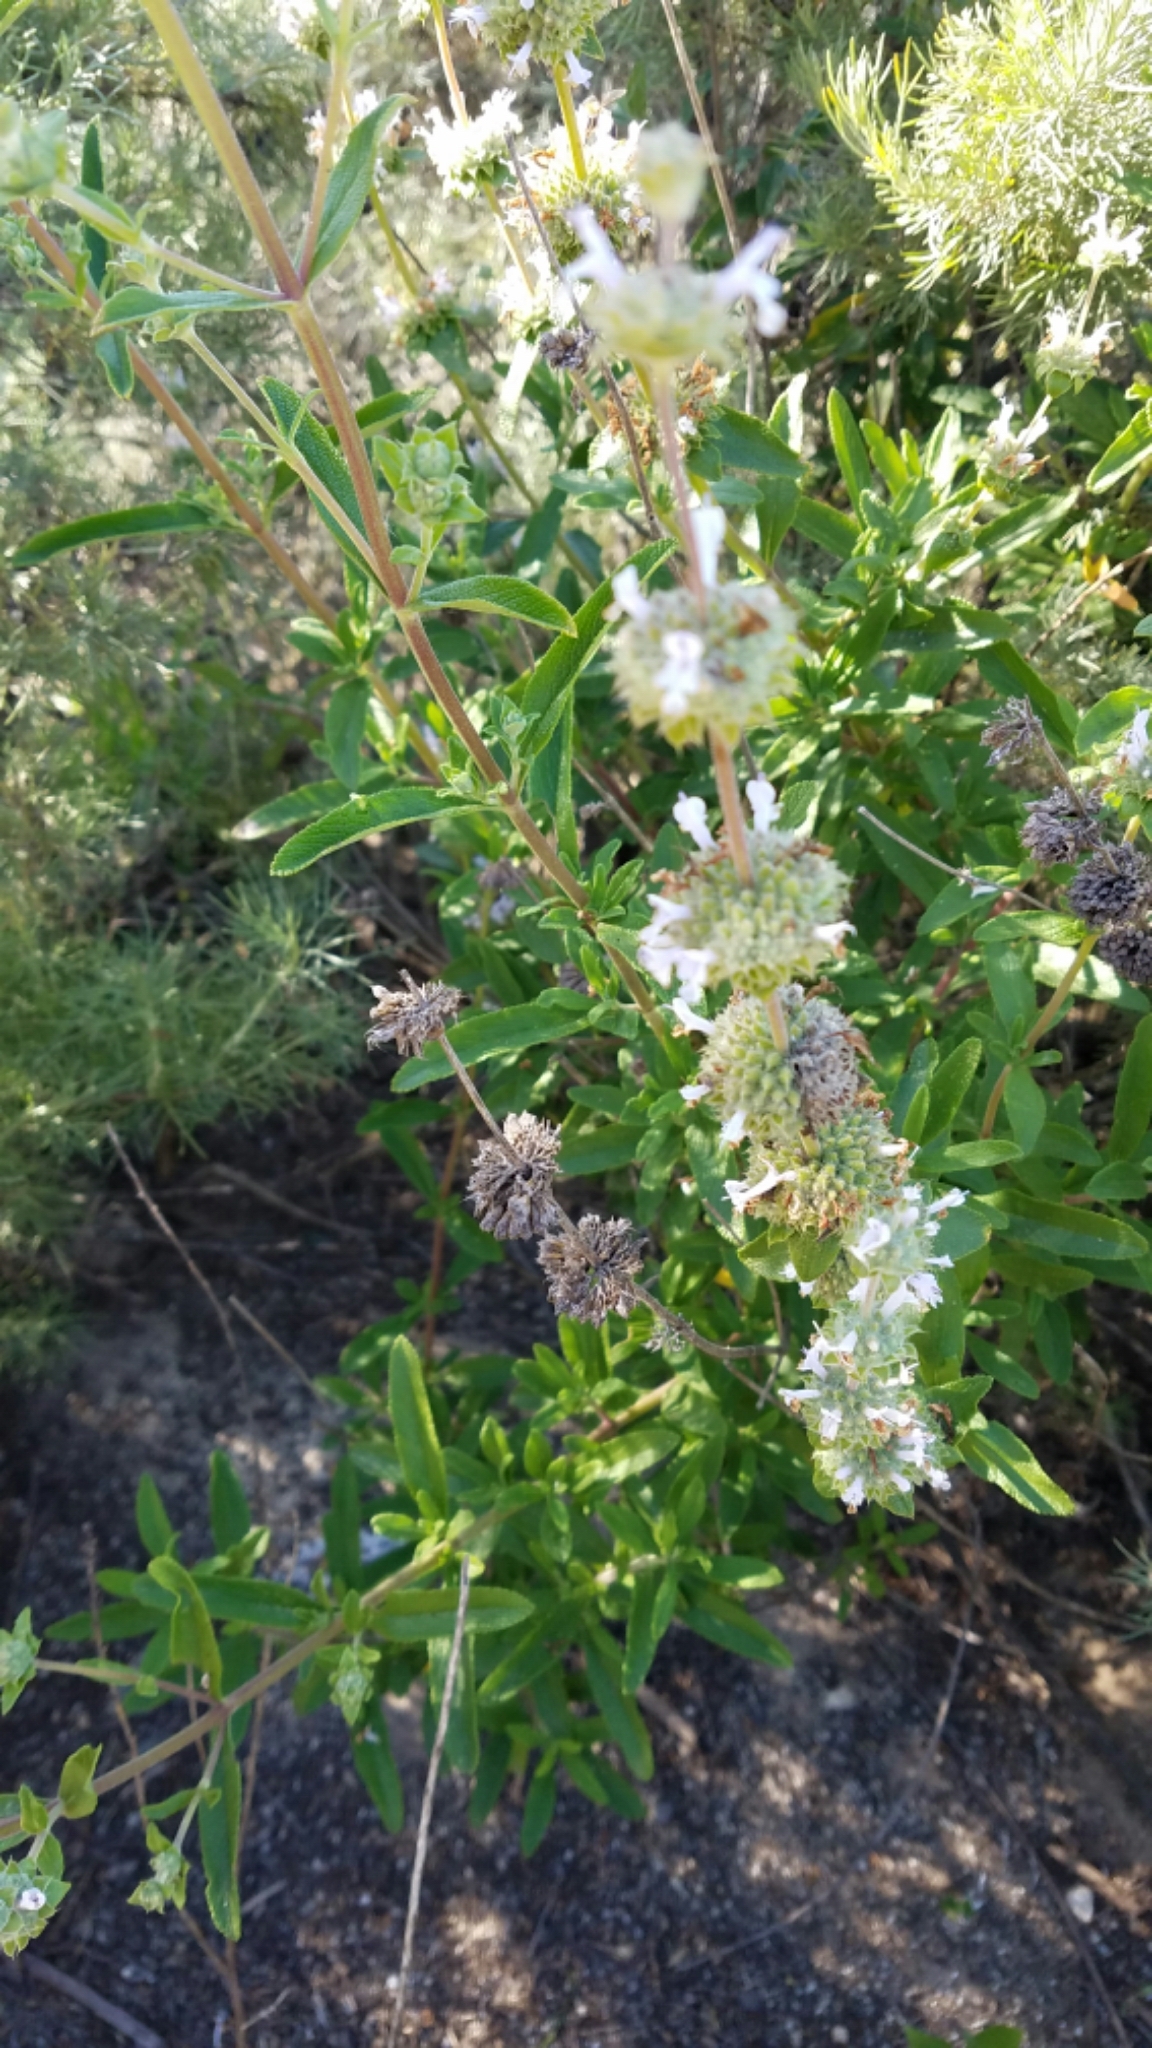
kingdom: Plantae
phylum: Tracheophyta
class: Magnoliopsida
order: Lamiales
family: Lamiaceae
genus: Salvia
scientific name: Salvia mellifera
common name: Black sage
